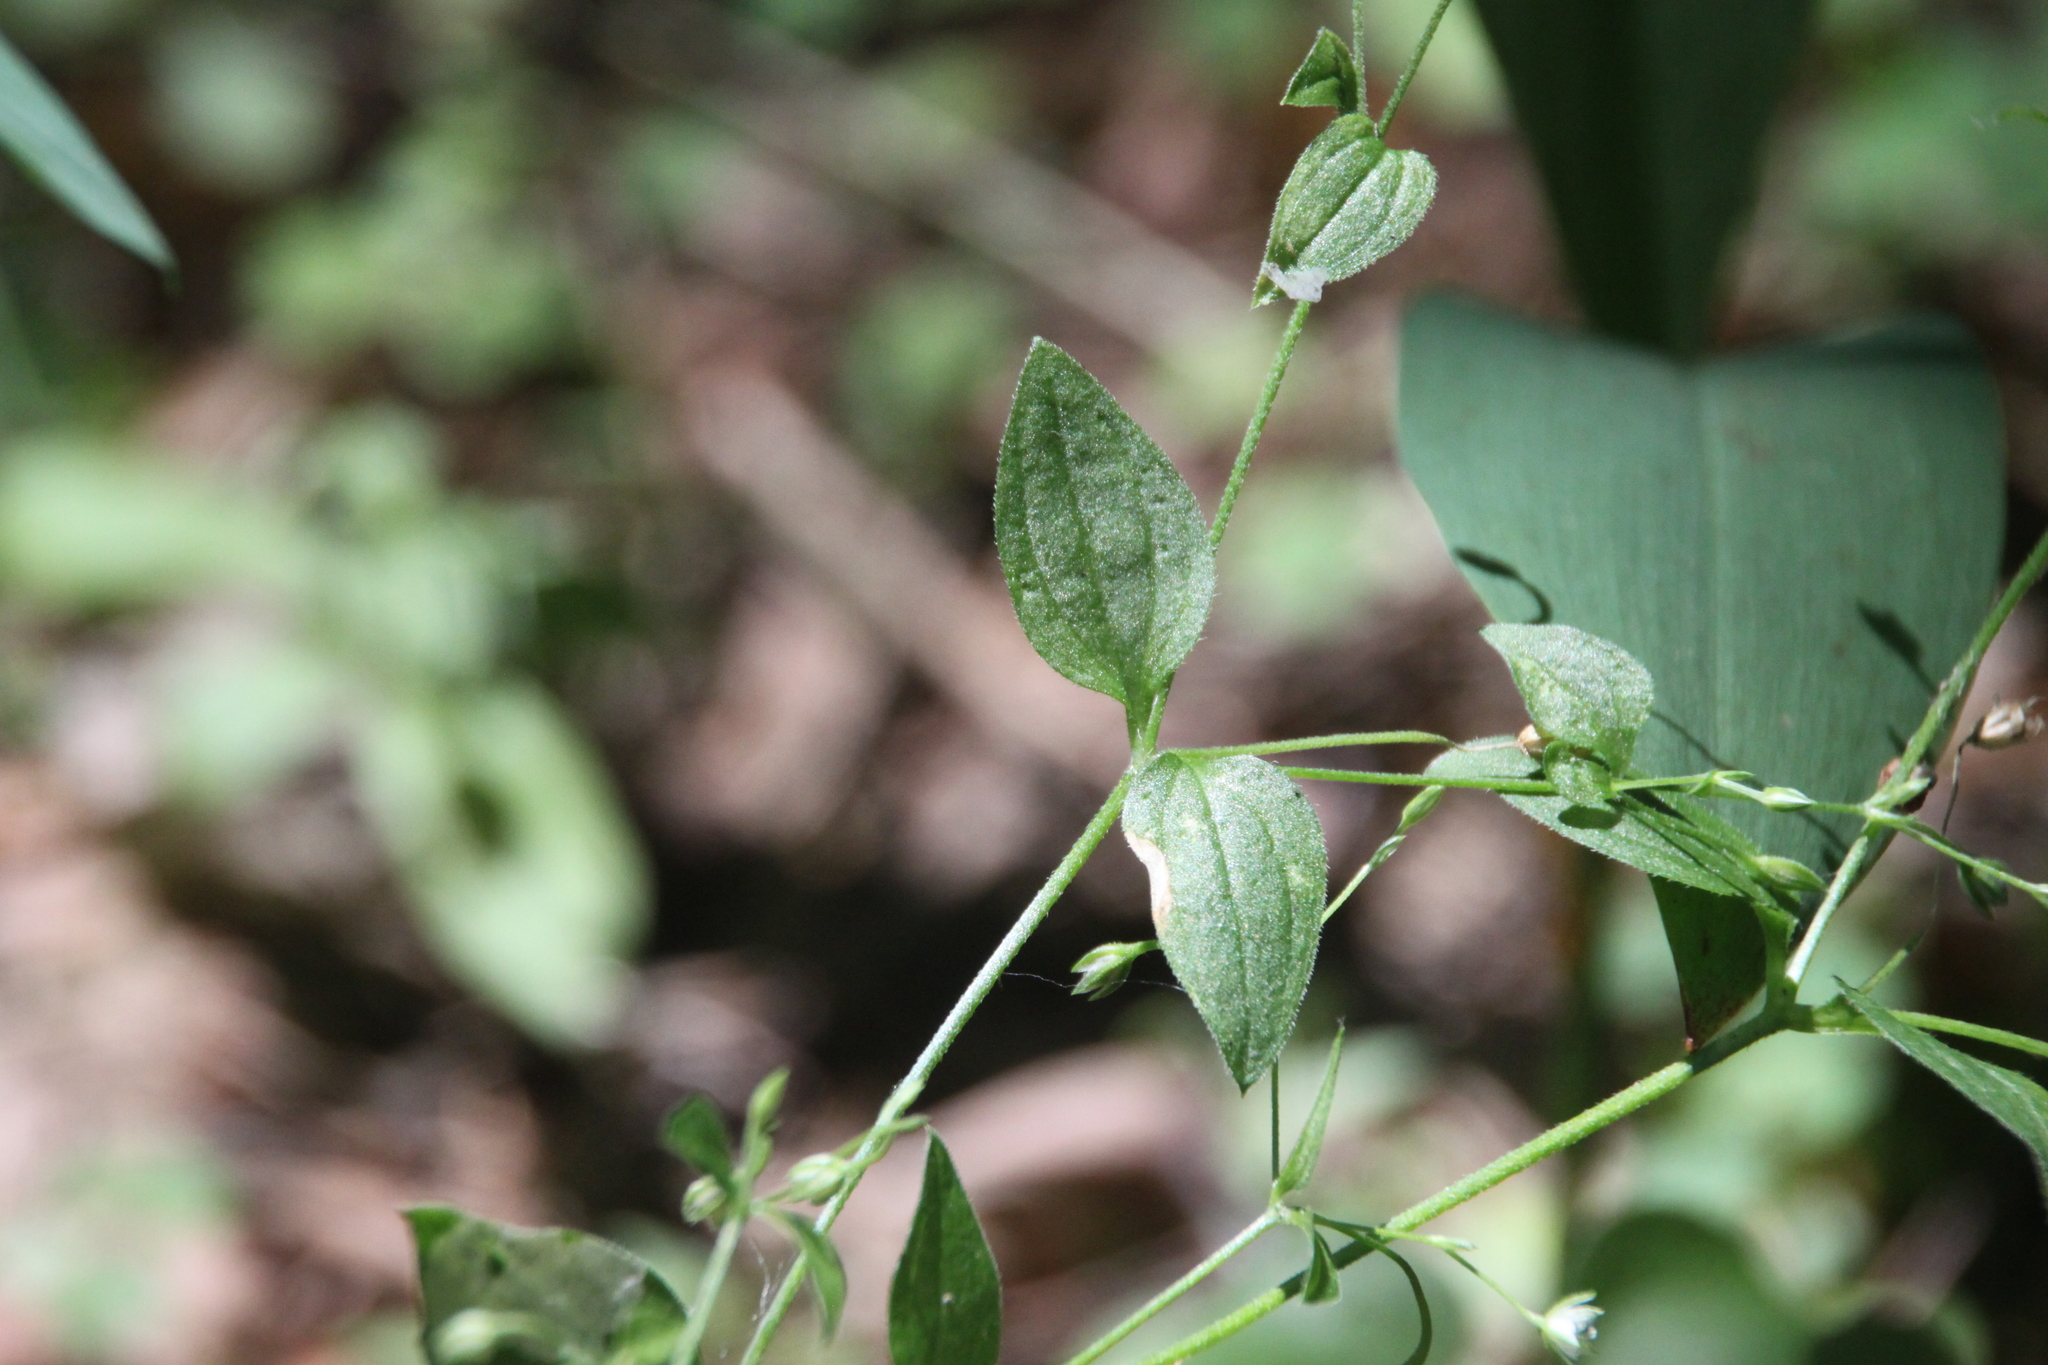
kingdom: Plantae
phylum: Tracheophyta
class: Magnoliopsida
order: Caryophyllales
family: Caryophyllaceae
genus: Moehringia
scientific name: Moehringia trinervia
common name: Three-nerved sandwort
